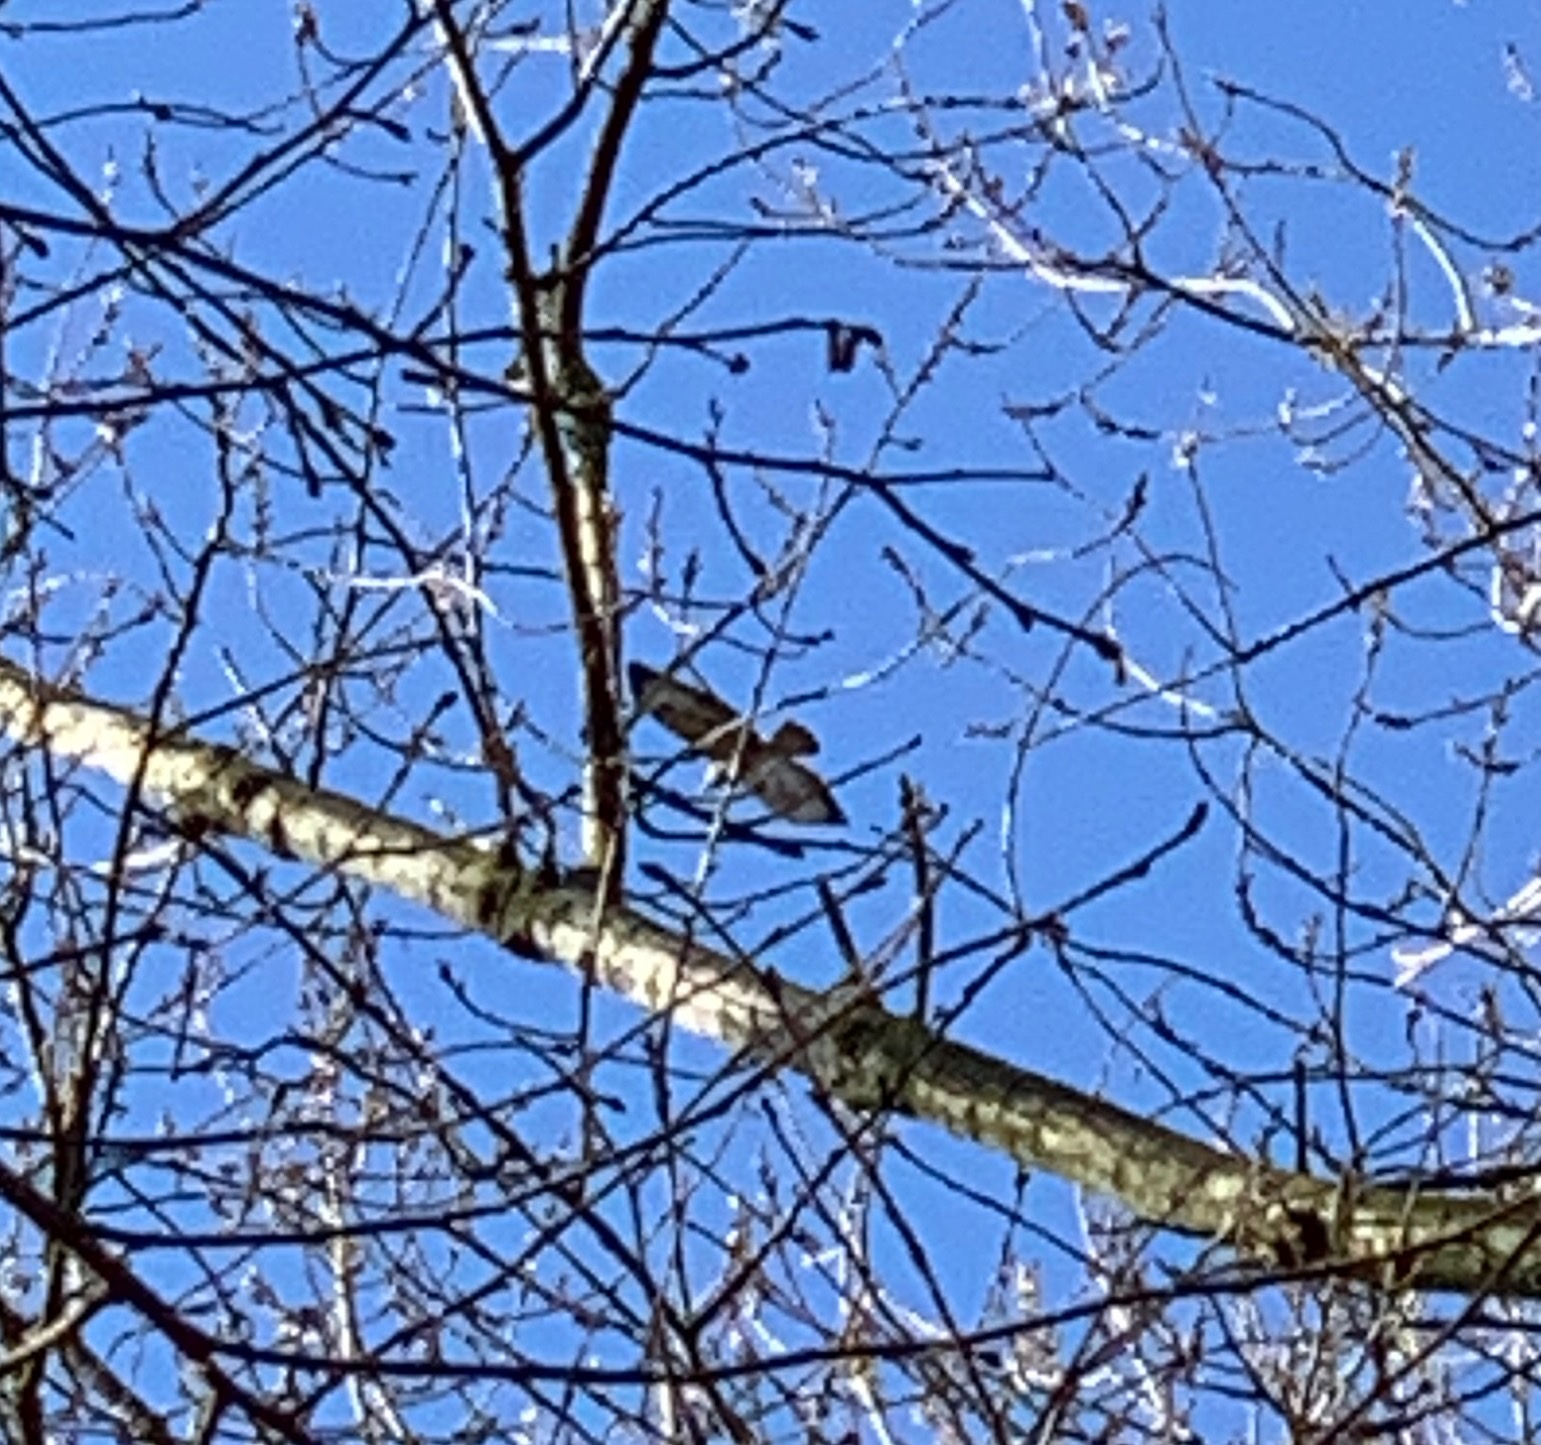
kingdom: Animalia
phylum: Chordata
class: Aves
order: Accipitriformes
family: Accipitridae
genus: Buteo
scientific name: Buteo buteo
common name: Common buzzard
